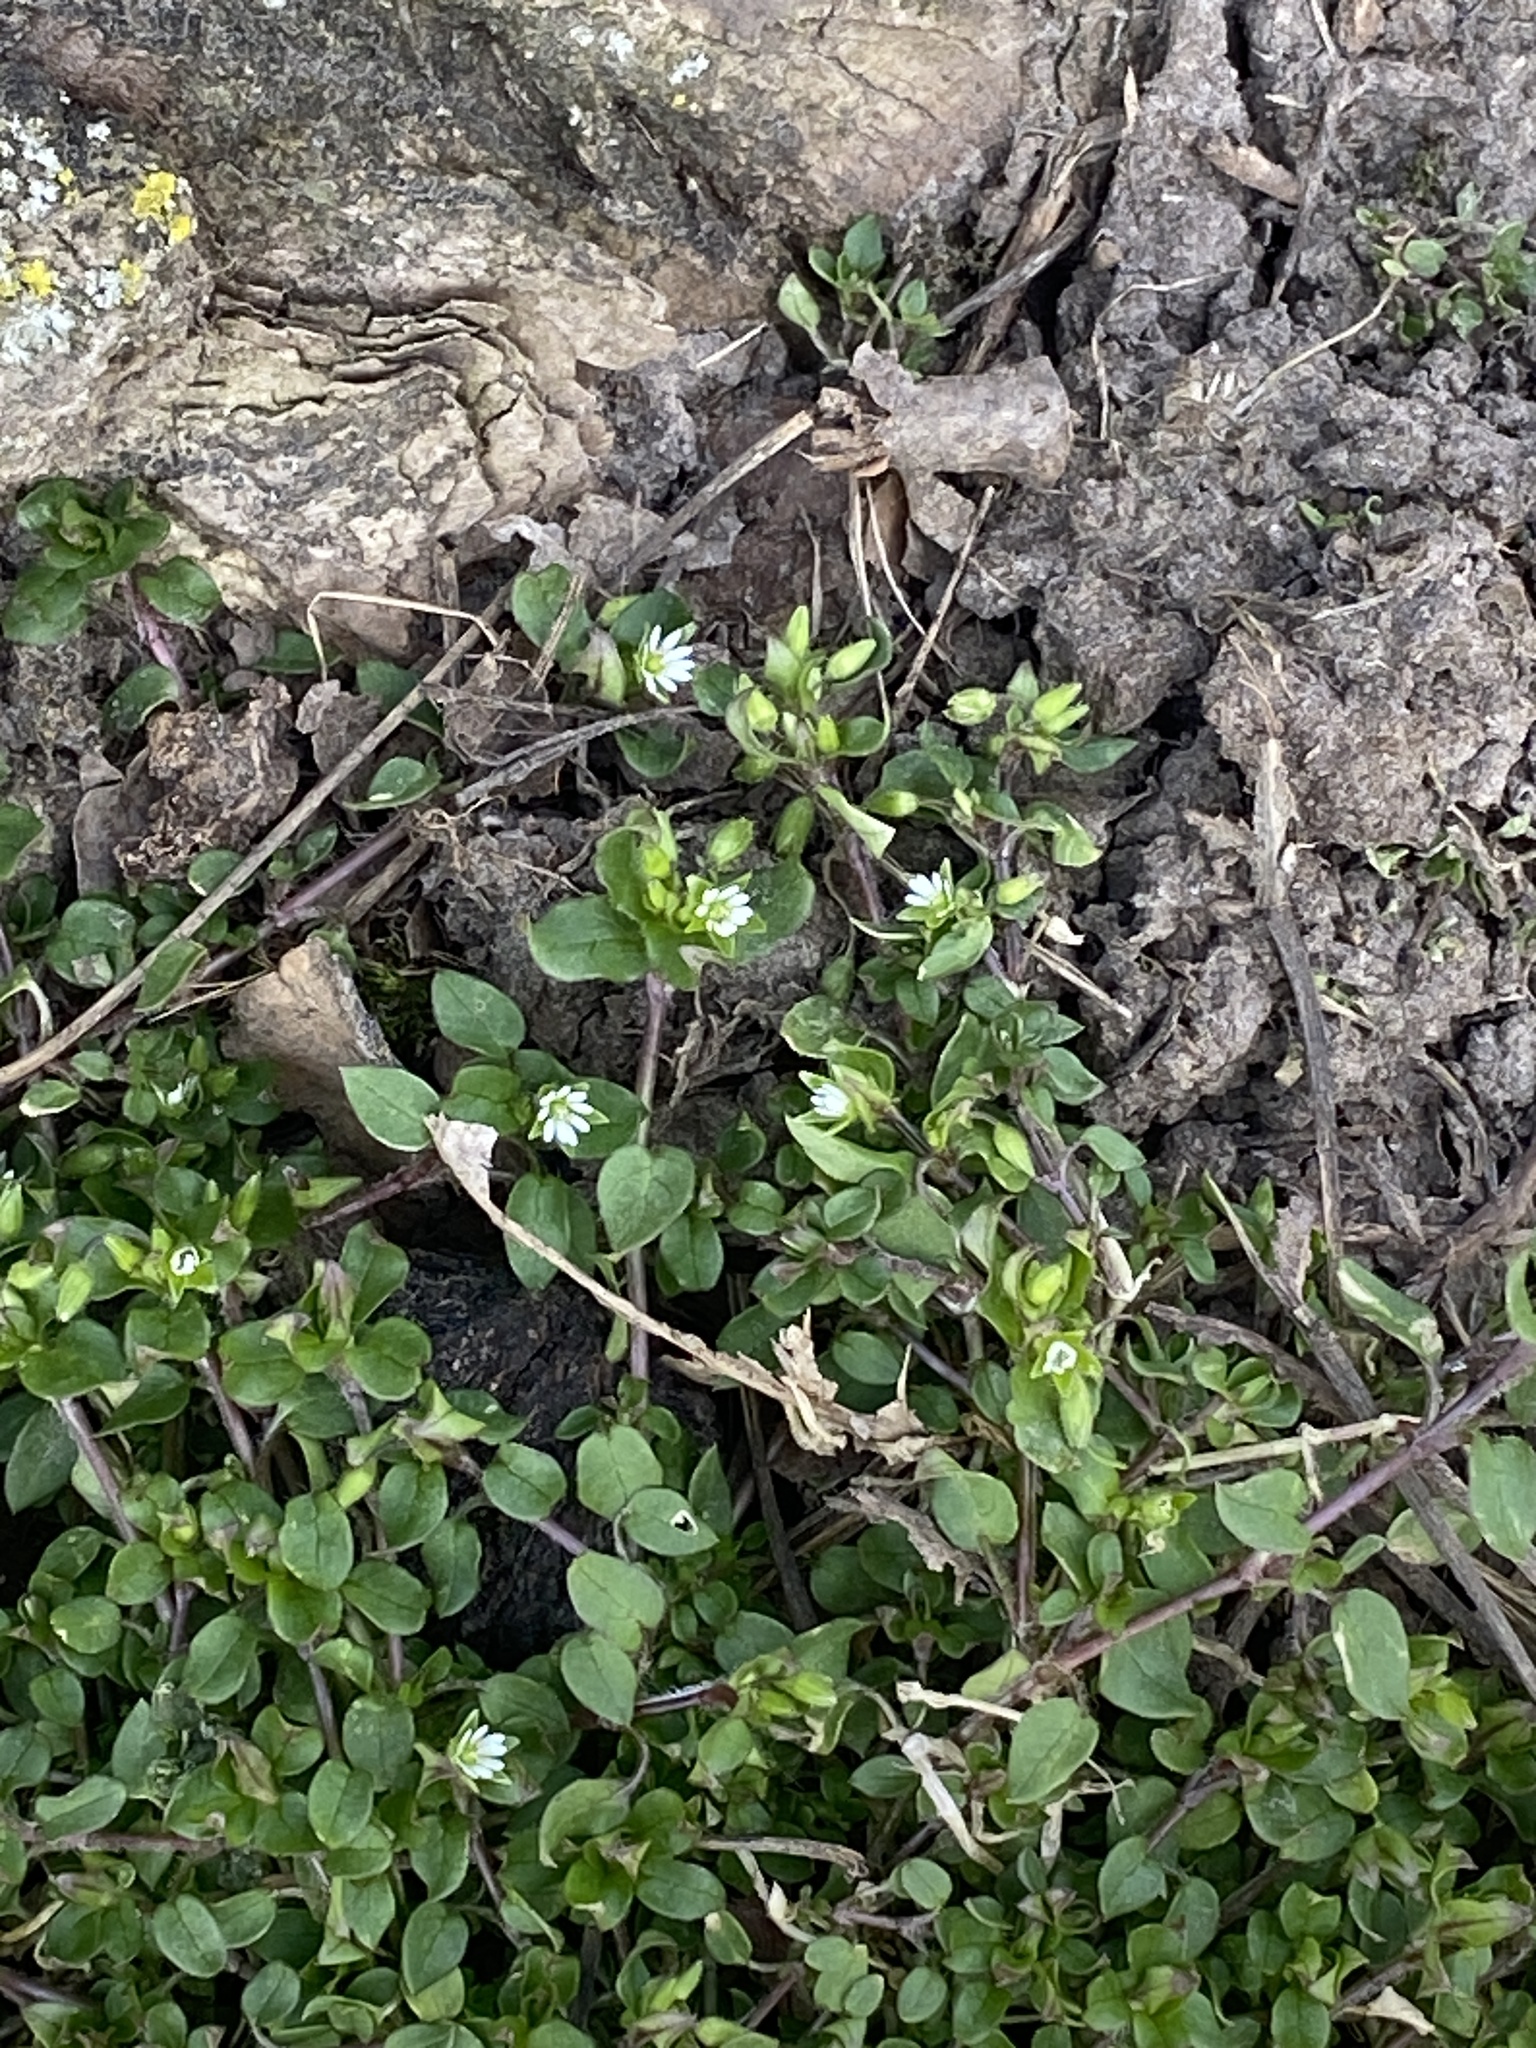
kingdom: Plantae
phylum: Tracheophyta
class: Magnoliopsida
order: Caryophyllales
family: Caryophyllaceae
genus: Stellaria
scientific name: Stellaria media
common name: Common chickweed
